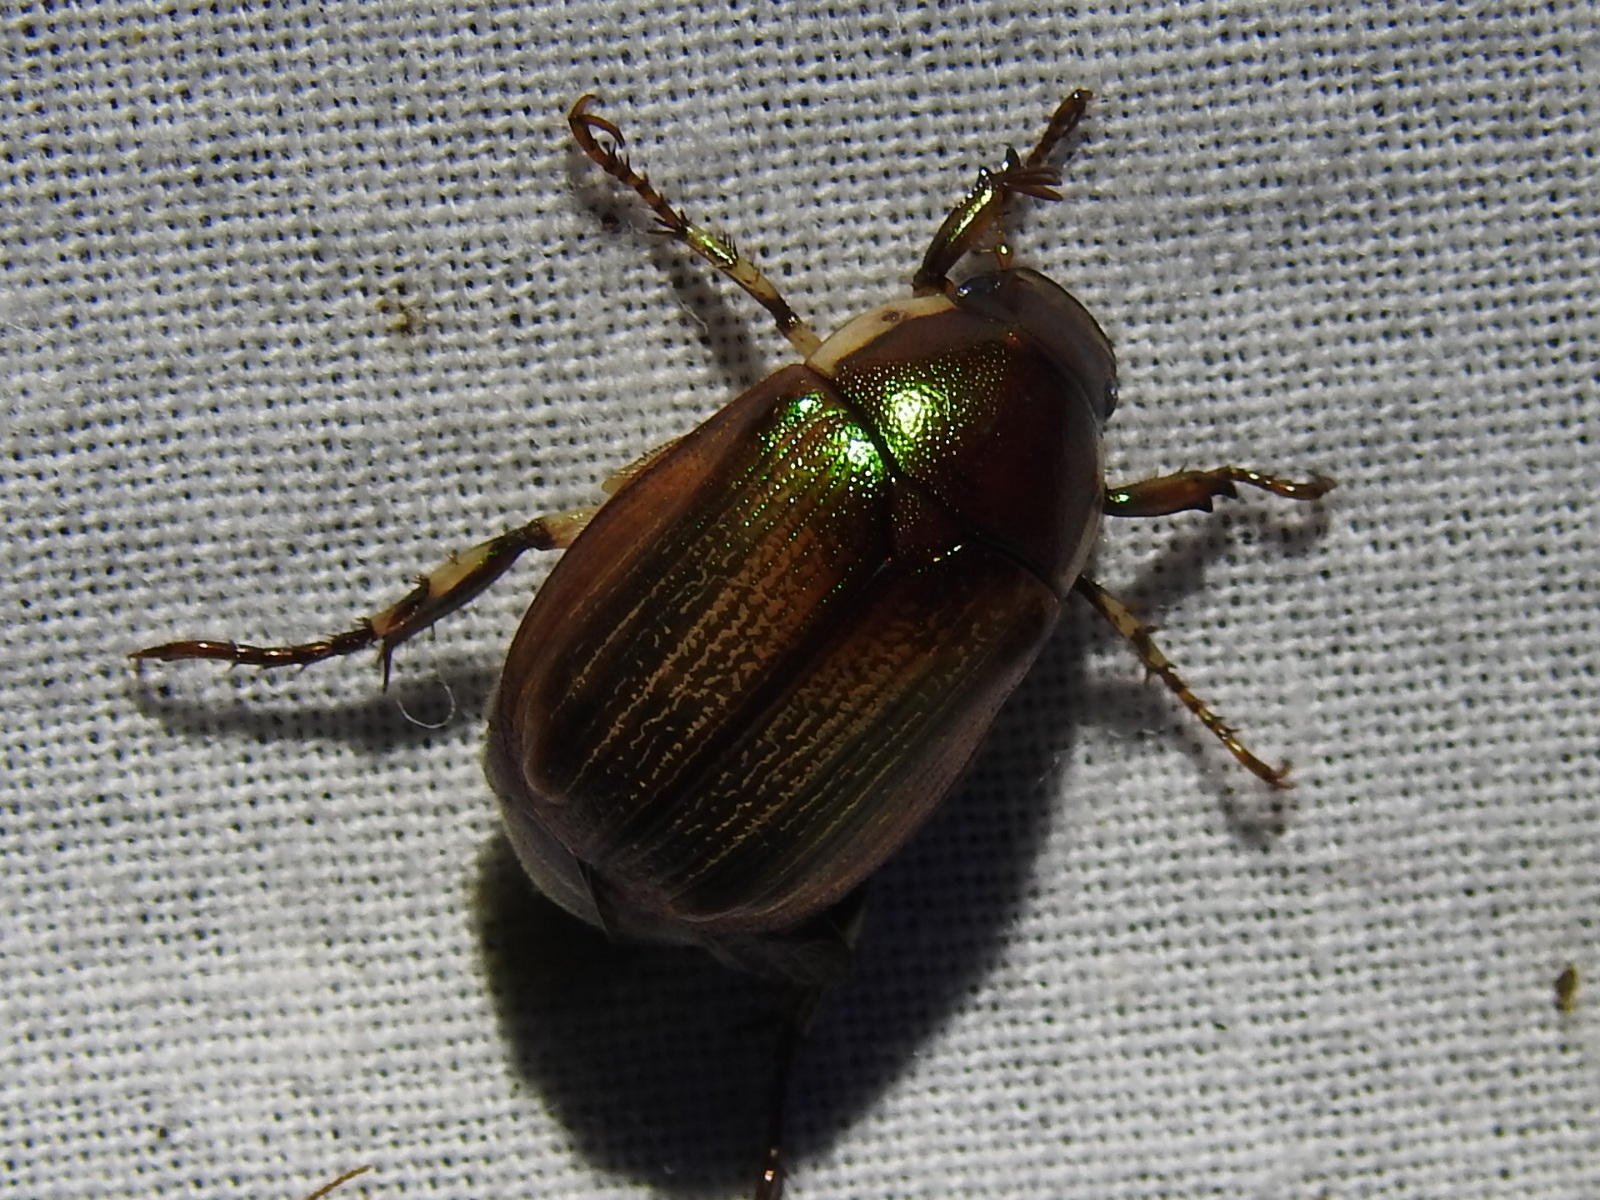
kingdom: Animalia
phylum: Arthropoda
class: Insecta
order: Coleoptera
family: Scarabaeidae
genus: Callistethus
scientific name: Callistethus marginatus
